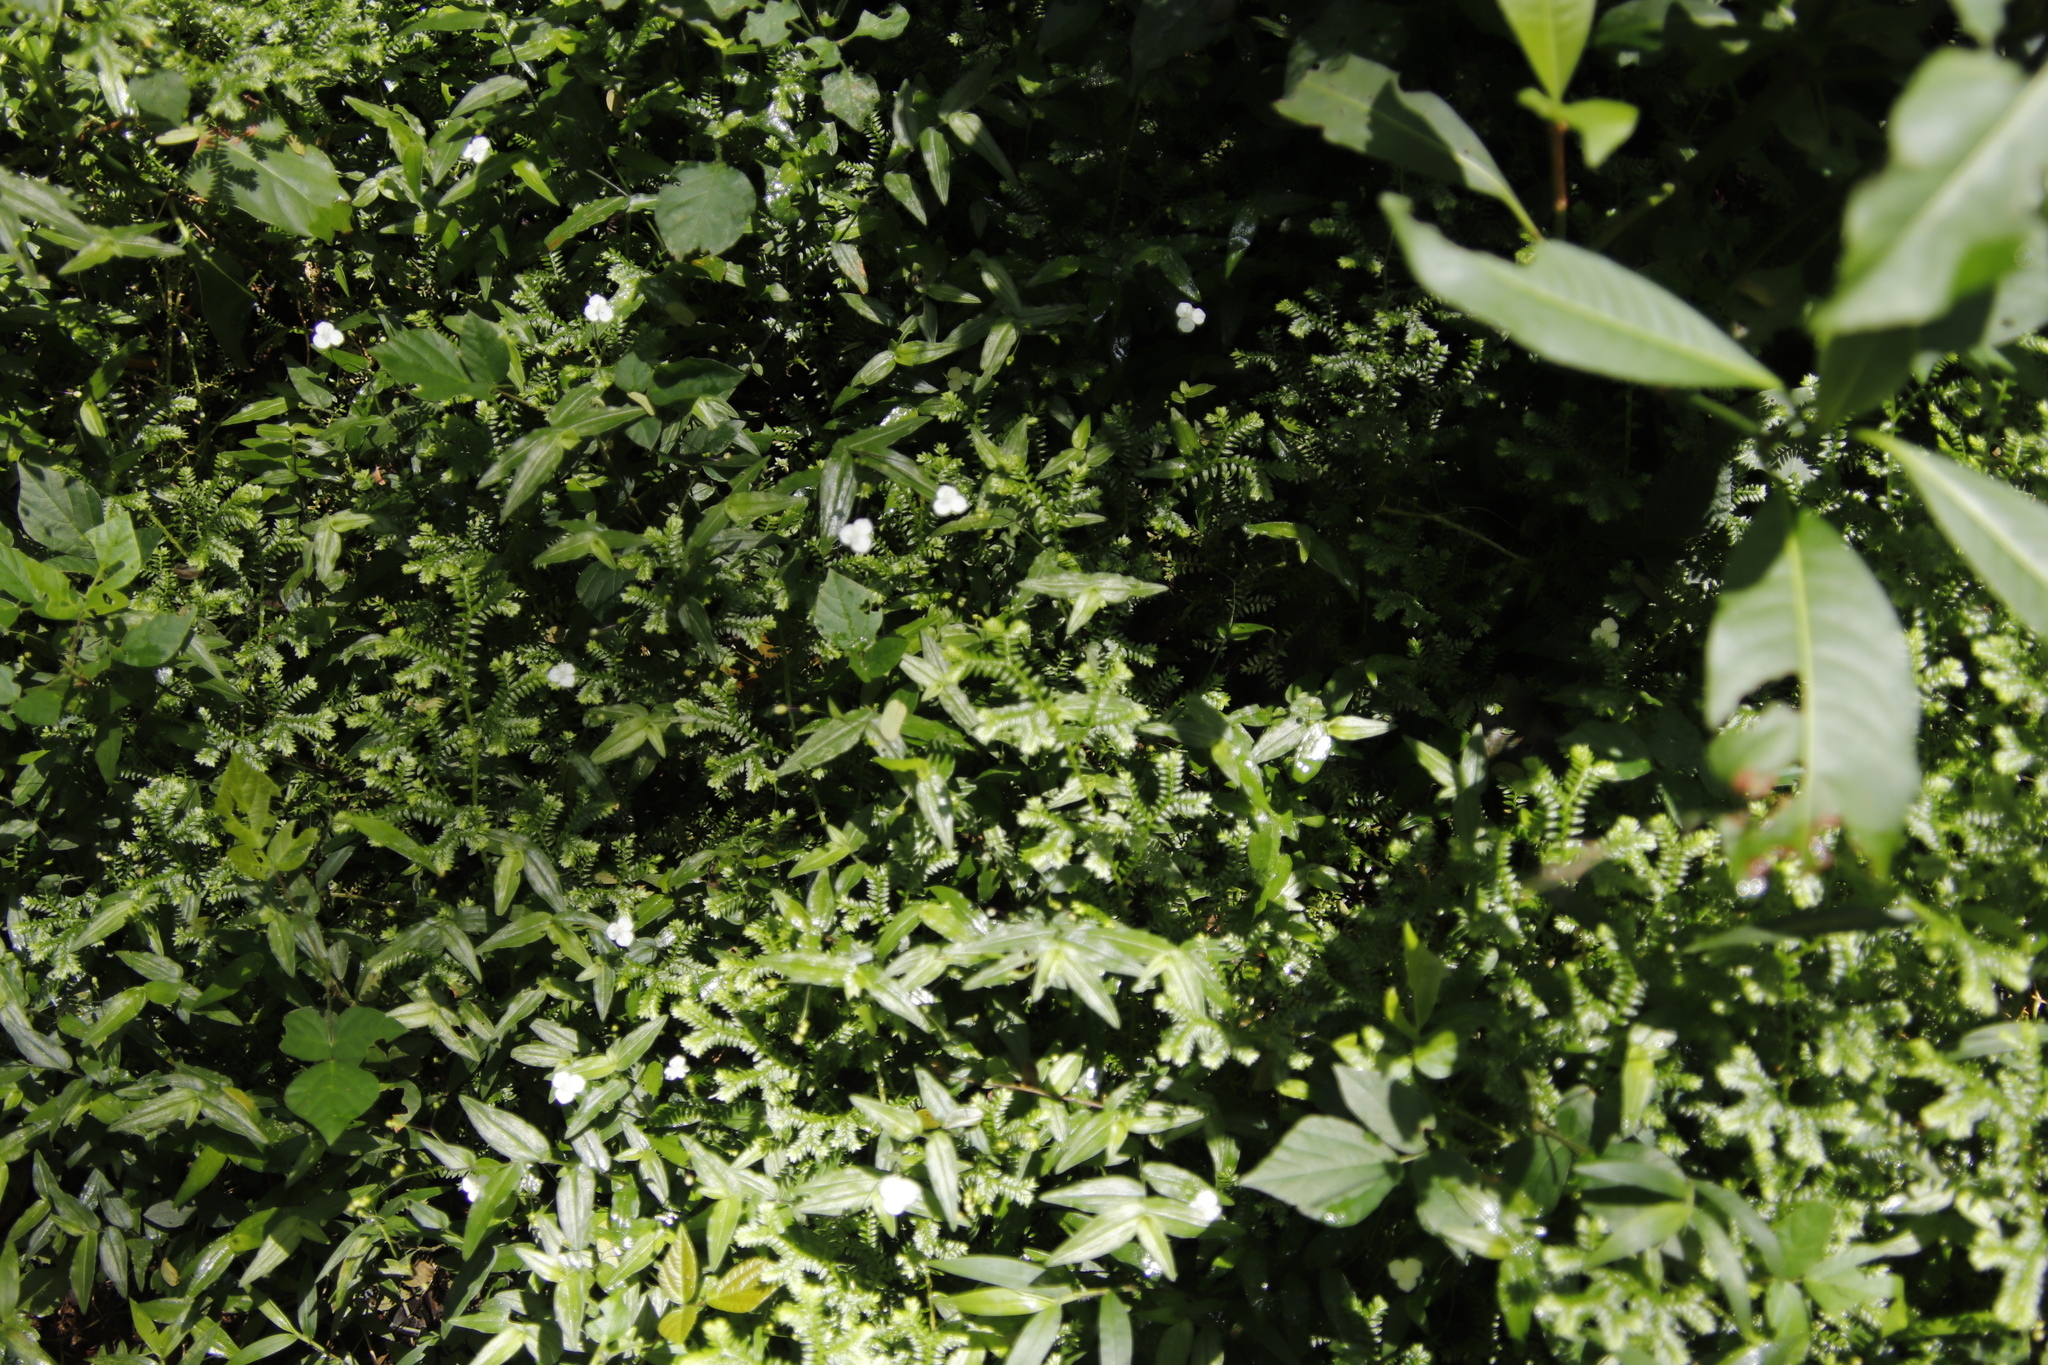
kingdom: Plantae
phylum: Tracheophyta
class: Lycopodiopsida
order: Selaginellales
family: Selaginellaceae
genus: Selaginella
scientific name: Selaginella kraussiana
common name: Krauss' spikemoss
